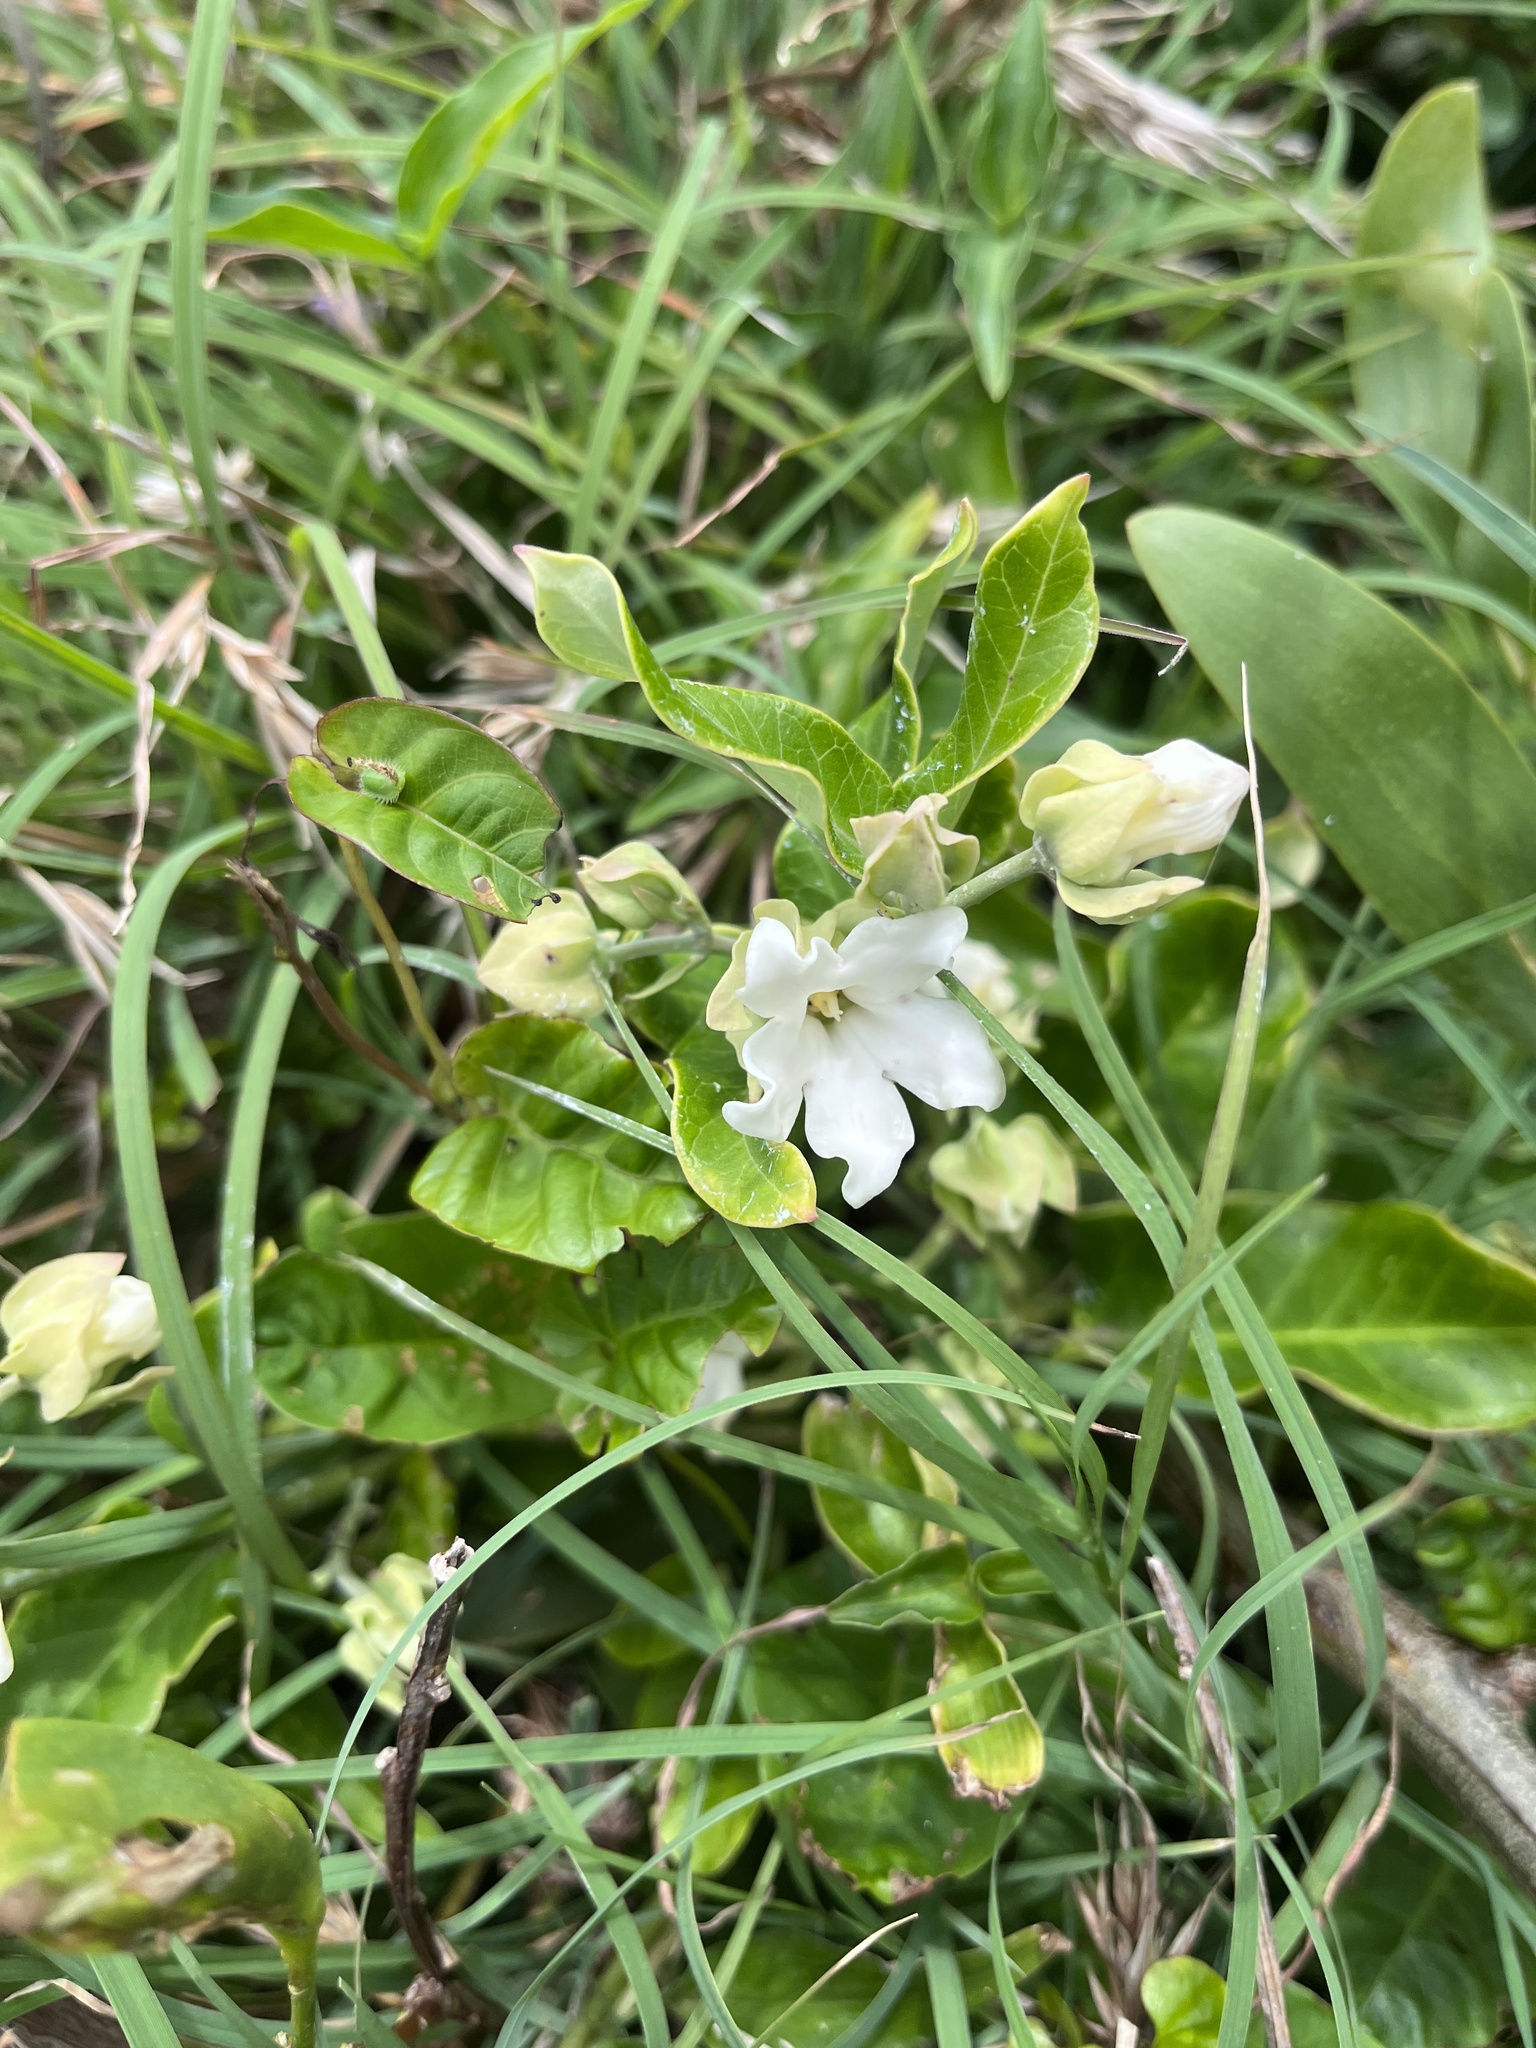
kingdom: Plantae
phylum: Tracheophyta
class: Magnoliopsida
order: Gentianales
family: Apocynaceae
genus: Araujia
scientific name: Araujia sericifera
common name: White bladderflower
